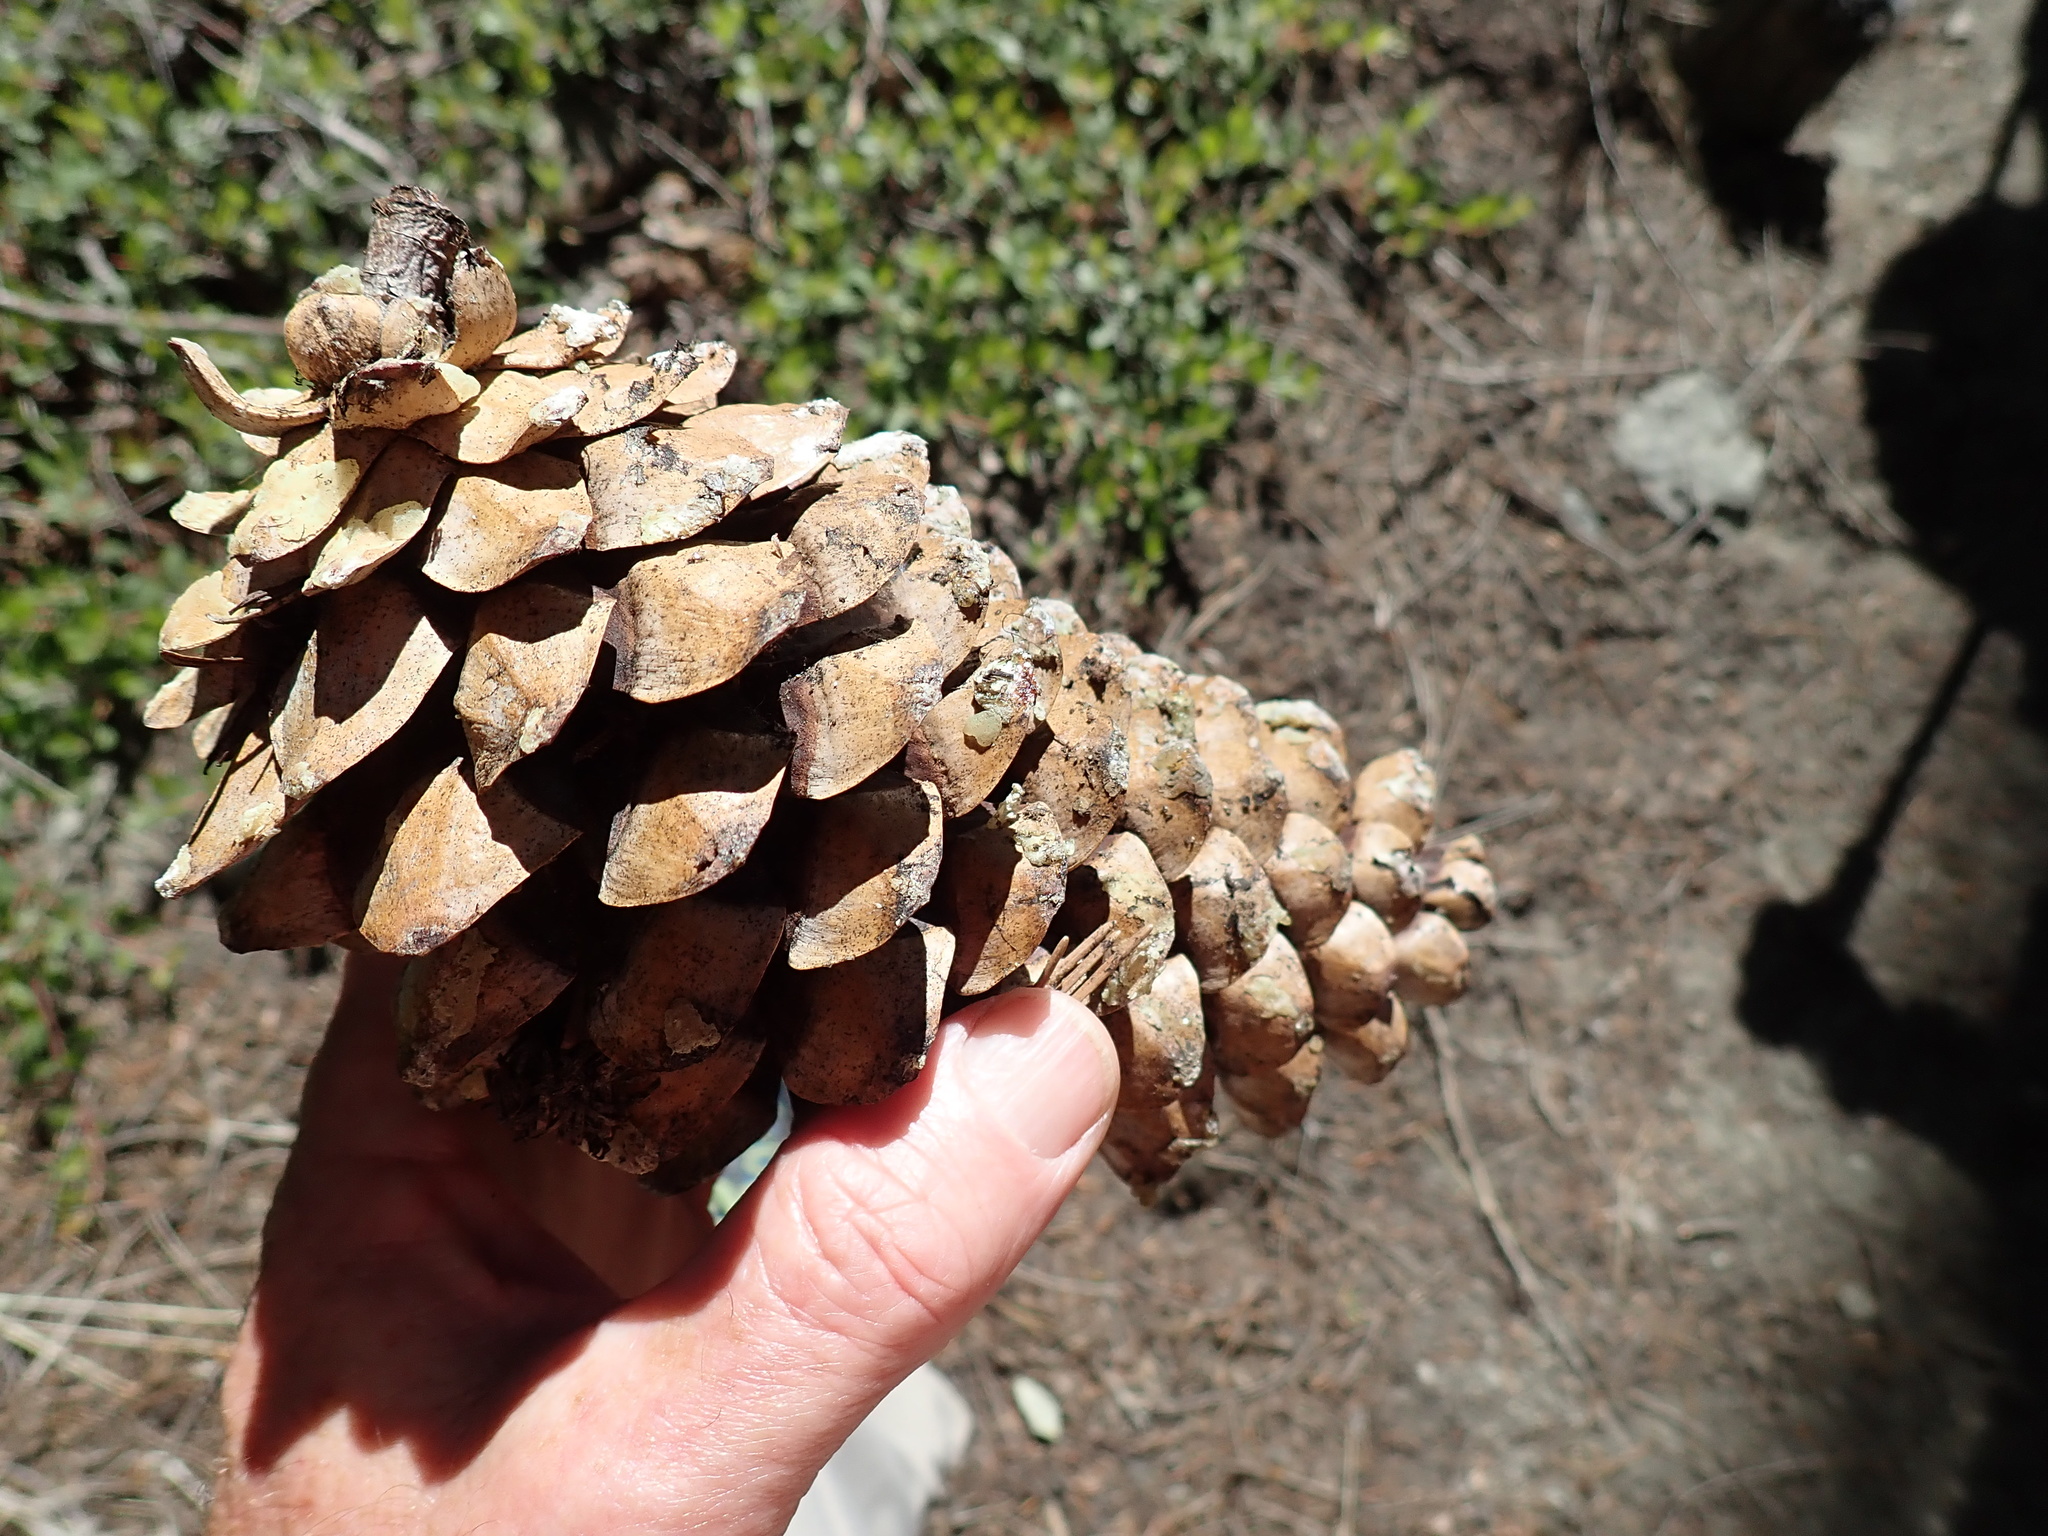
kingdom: Plantae
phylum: Tracheophyta
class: Pinopsida
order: Pinales
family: Pinaceae
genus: Pinus
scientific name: Pinus monticola
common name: Western white pine
